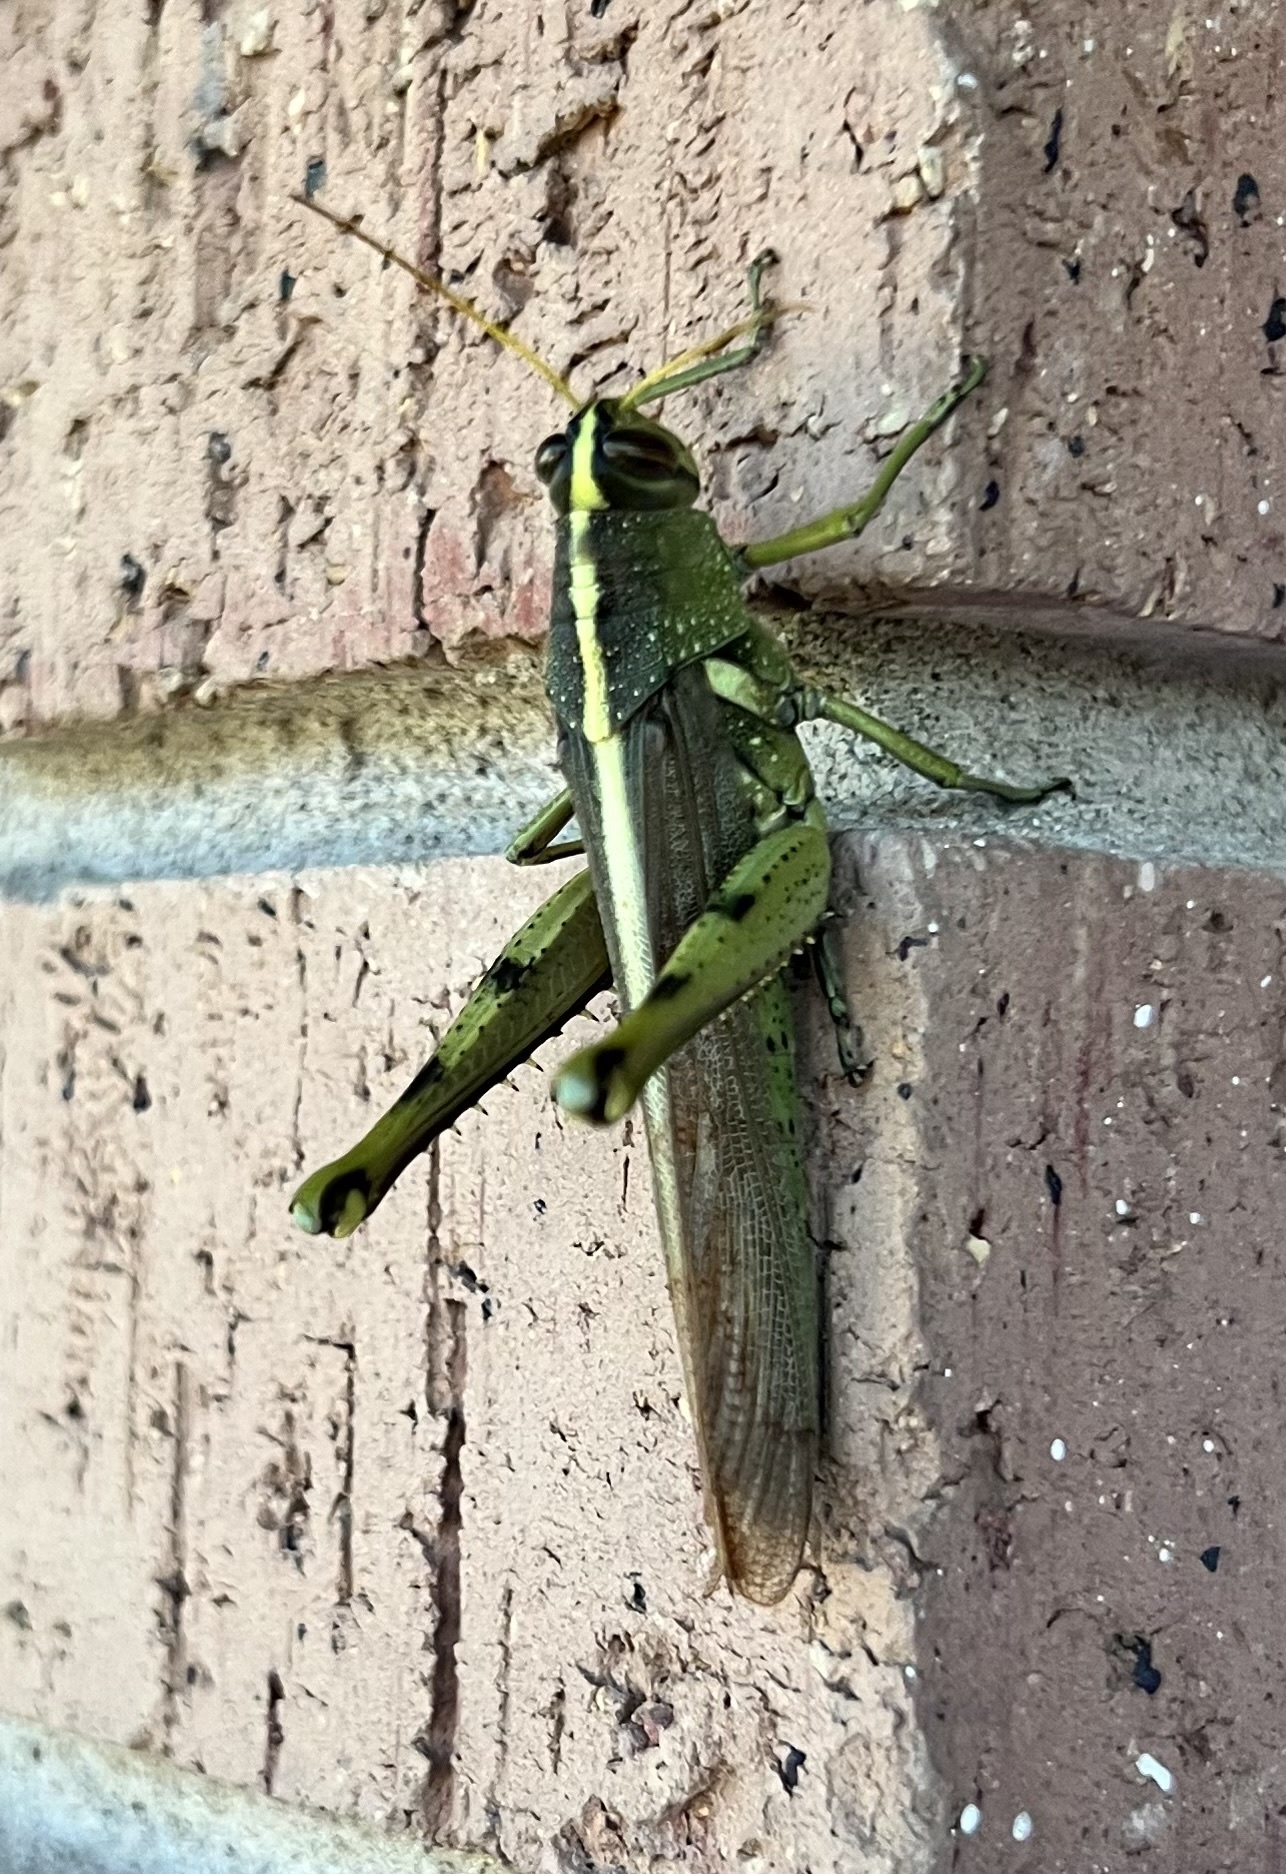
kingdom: Animalia
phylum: Arthropoda
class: Insecta
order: Orthoptera
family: Acrididae
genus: Schistocerca
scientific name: Schistocerca obscura
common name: Obscure bird grasshopper
